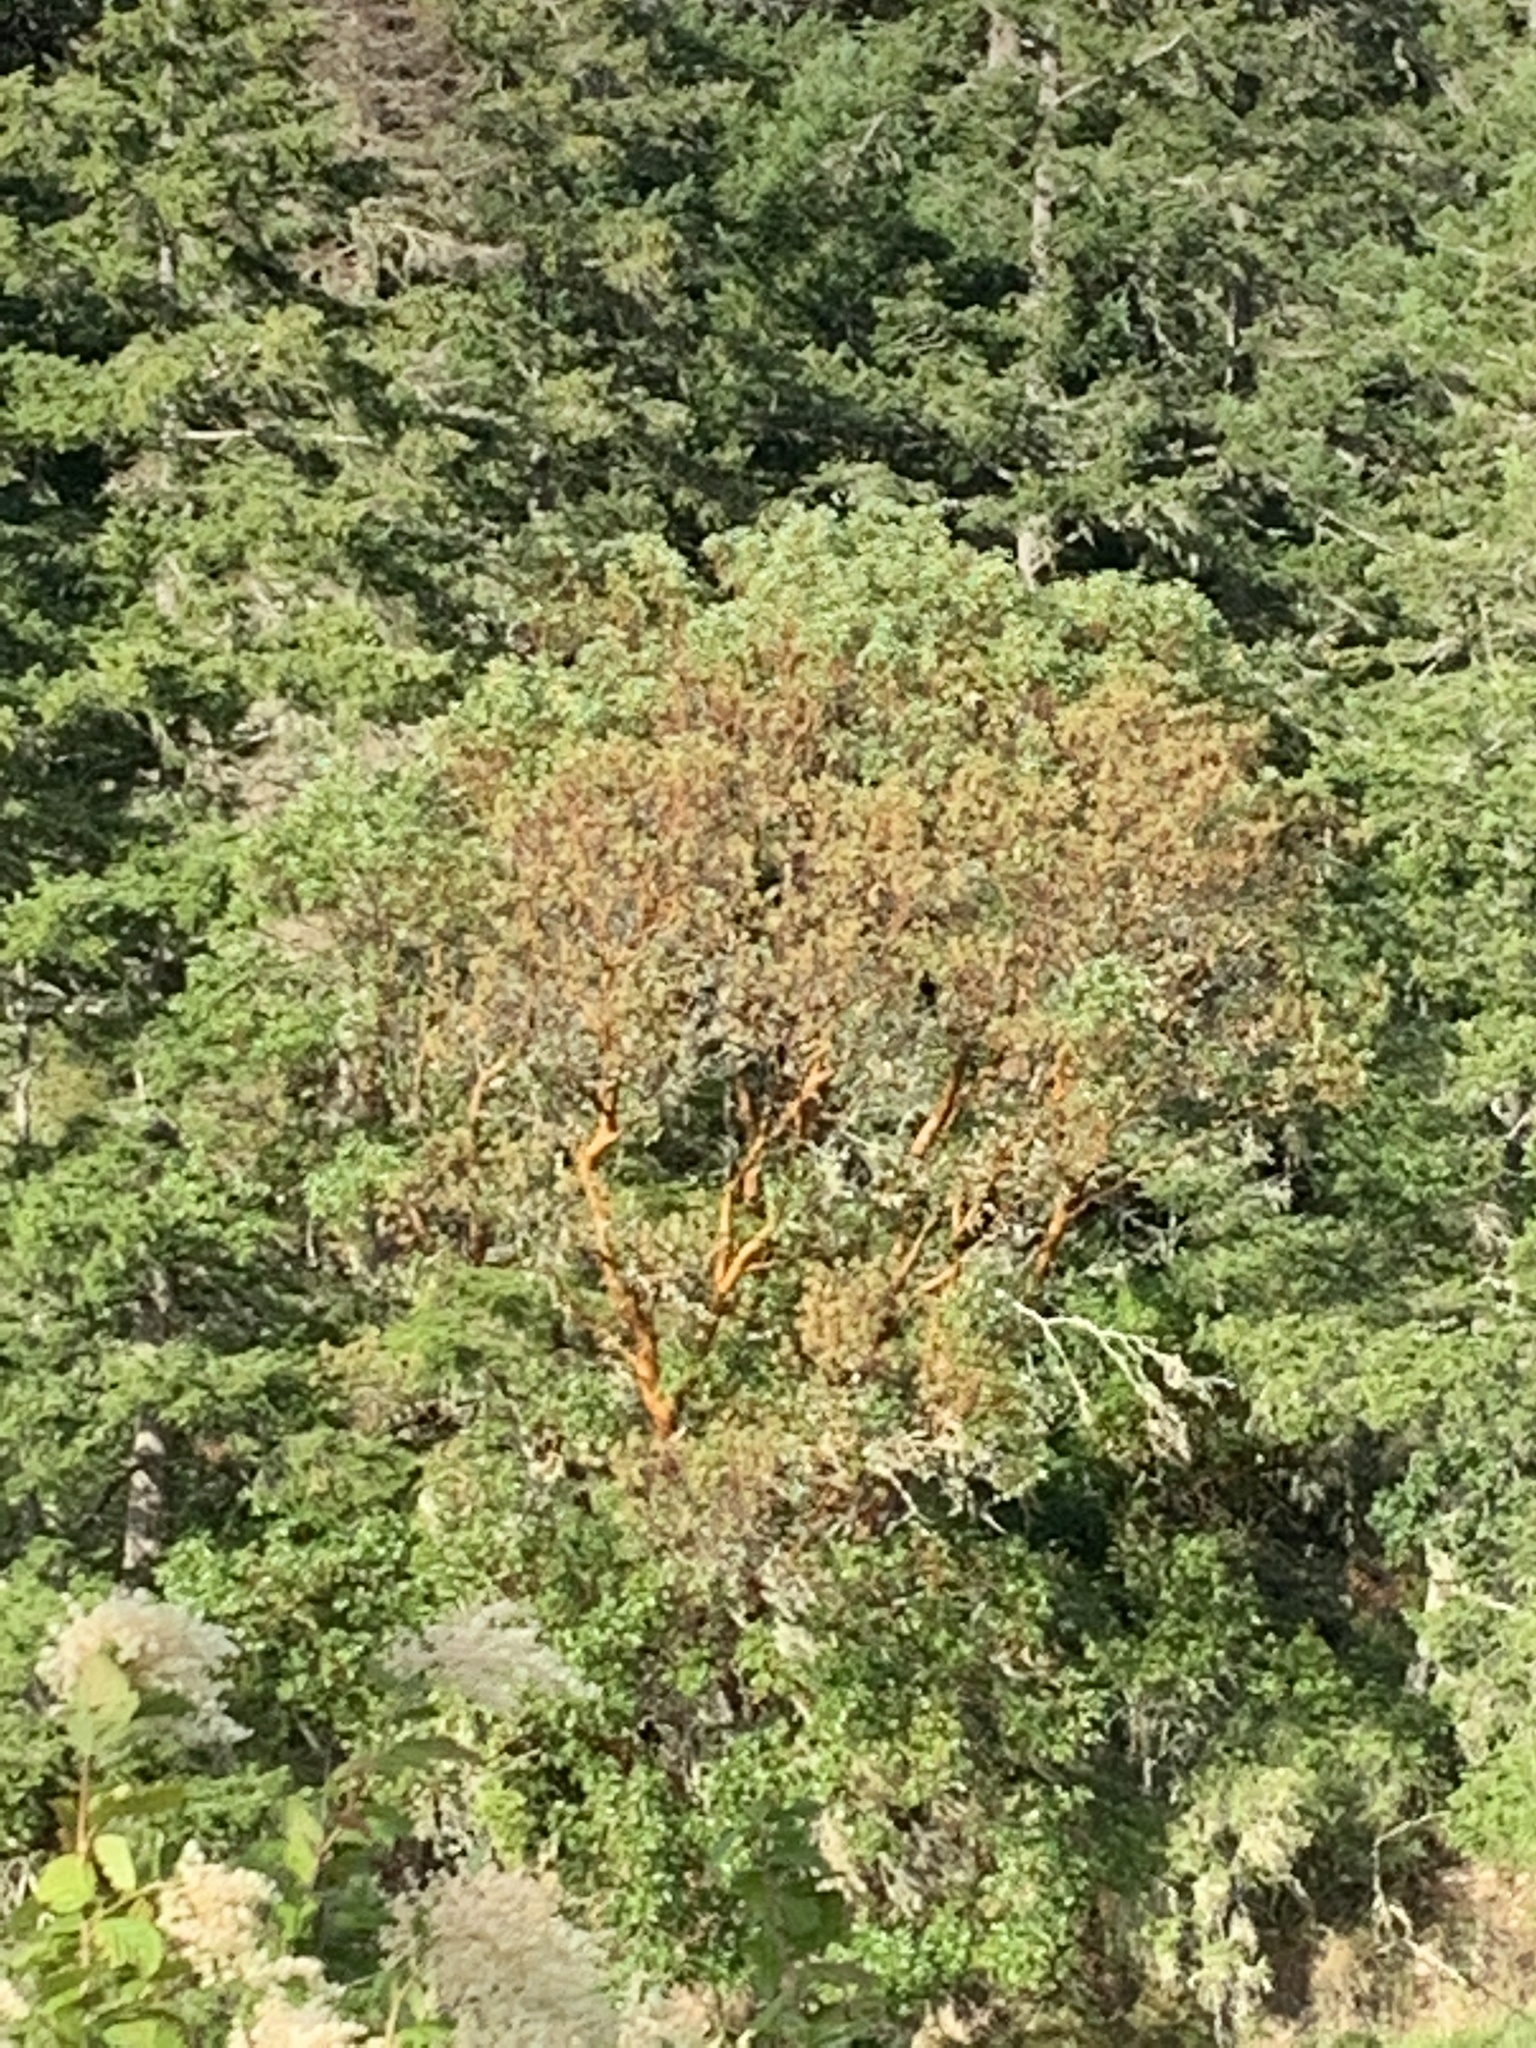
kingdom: Plantae
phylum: Tracheophyta
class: Magnoliopsida
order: Ericales
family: Ericaceae
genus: Arbutus
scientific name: Arbutus menziesii
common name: Pacific madrone
